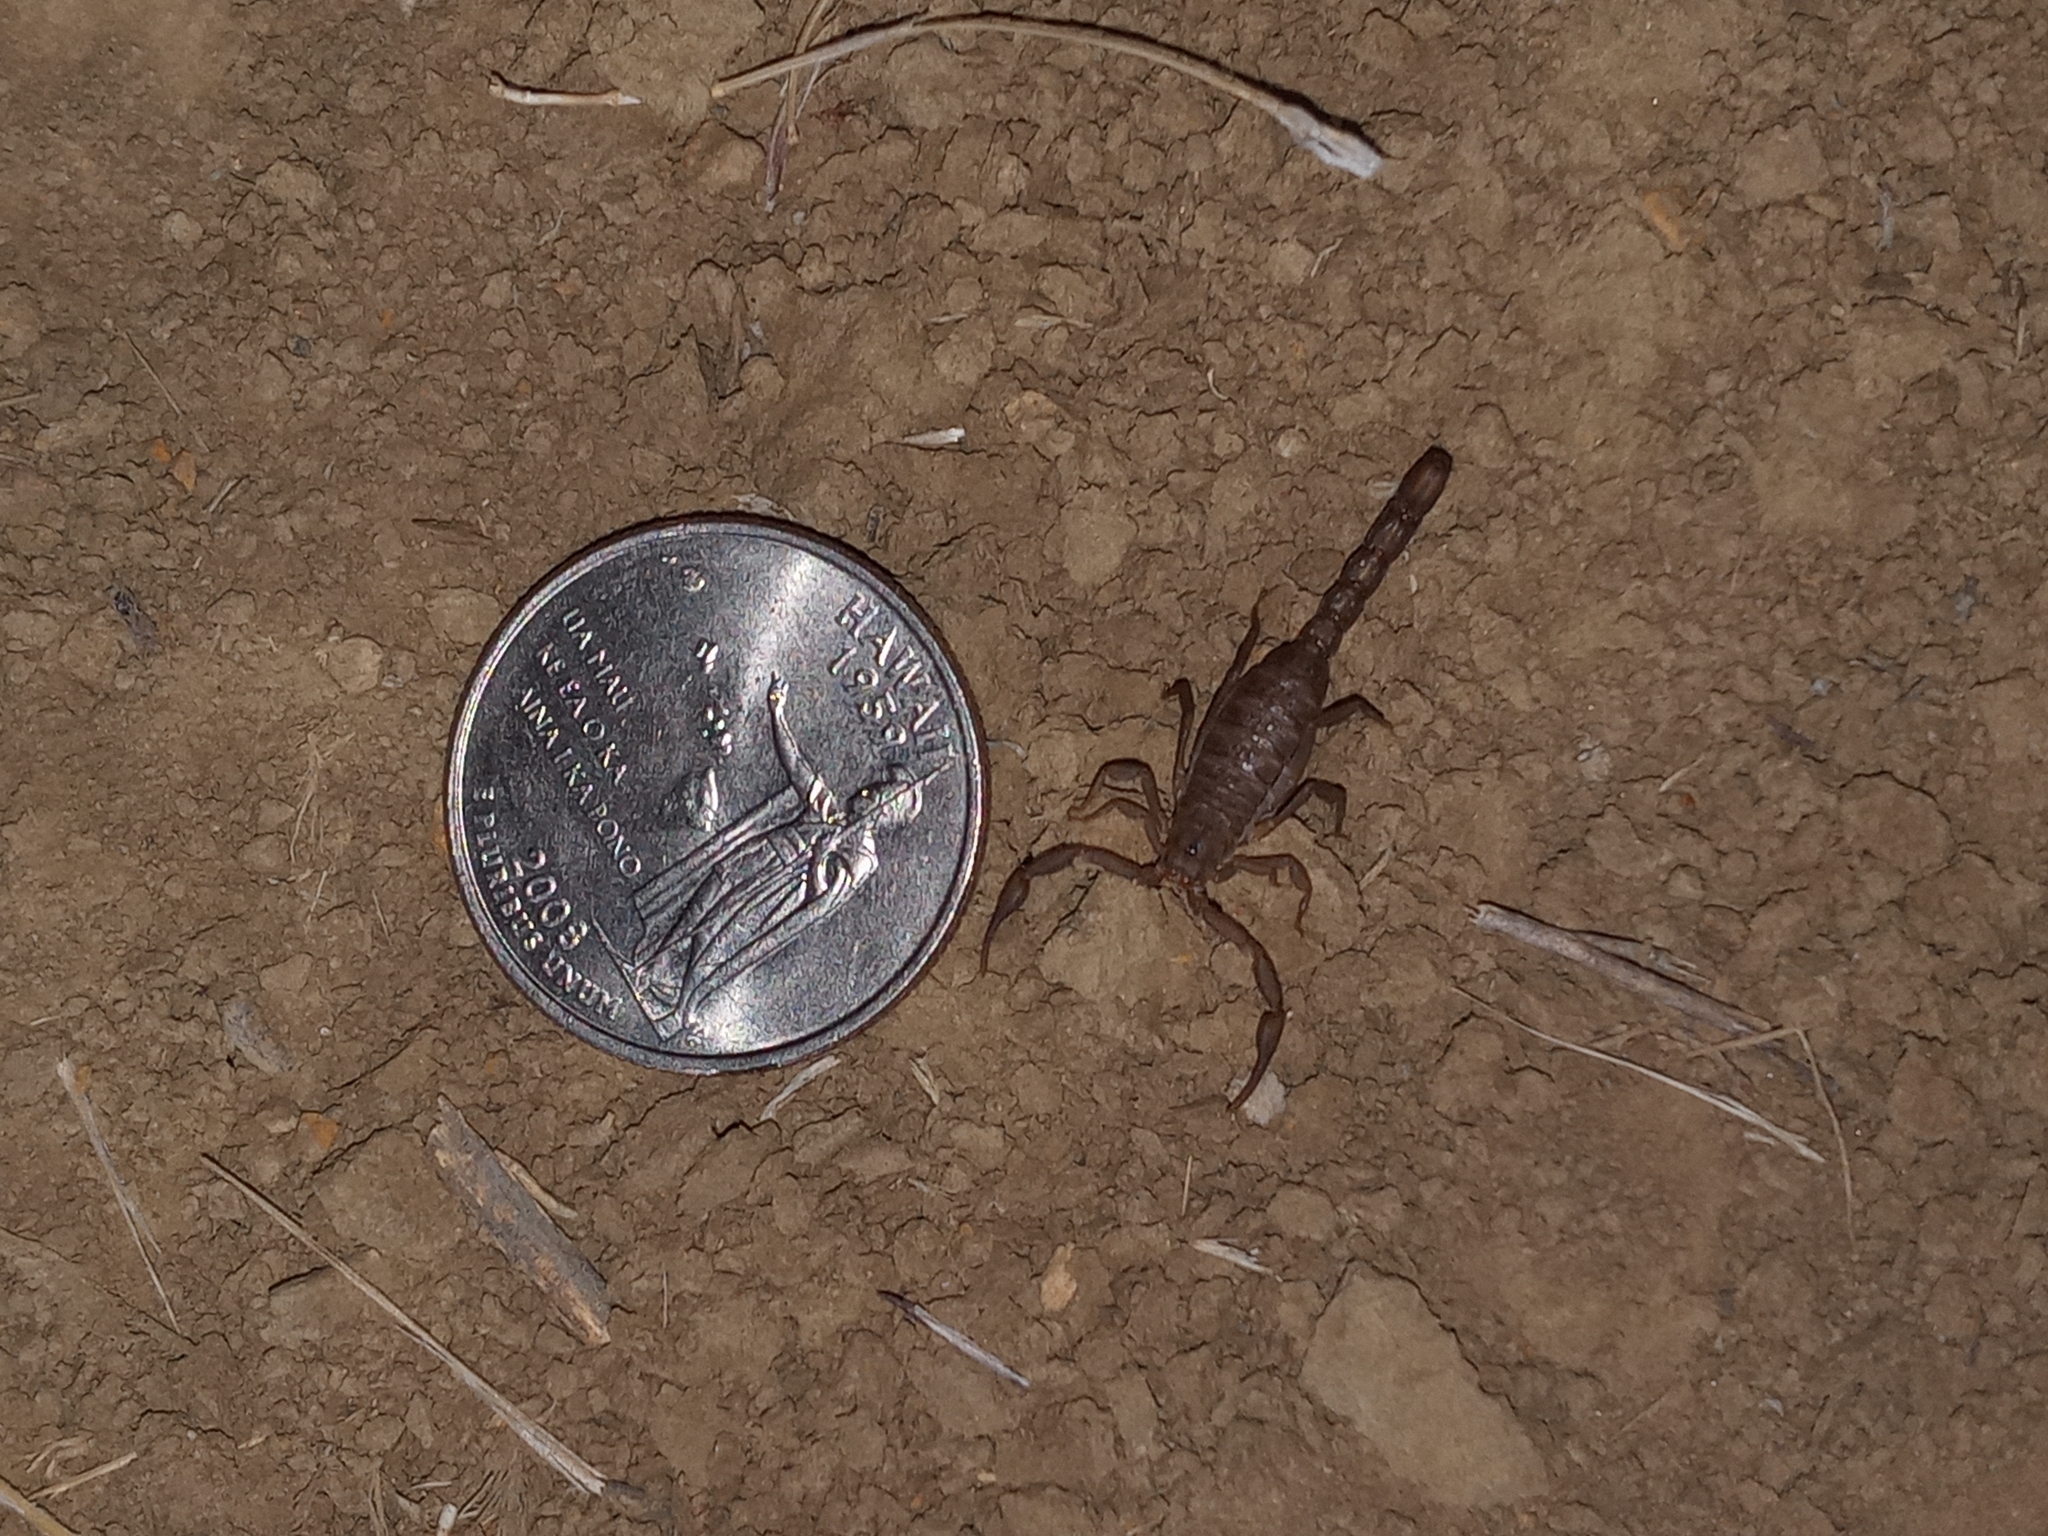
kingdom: Animalia
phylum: Arthropoda
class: Arachnida
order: Scorpiones
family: Vaejovidae
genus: Serradigitus
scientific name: Serradigitus gertschi
